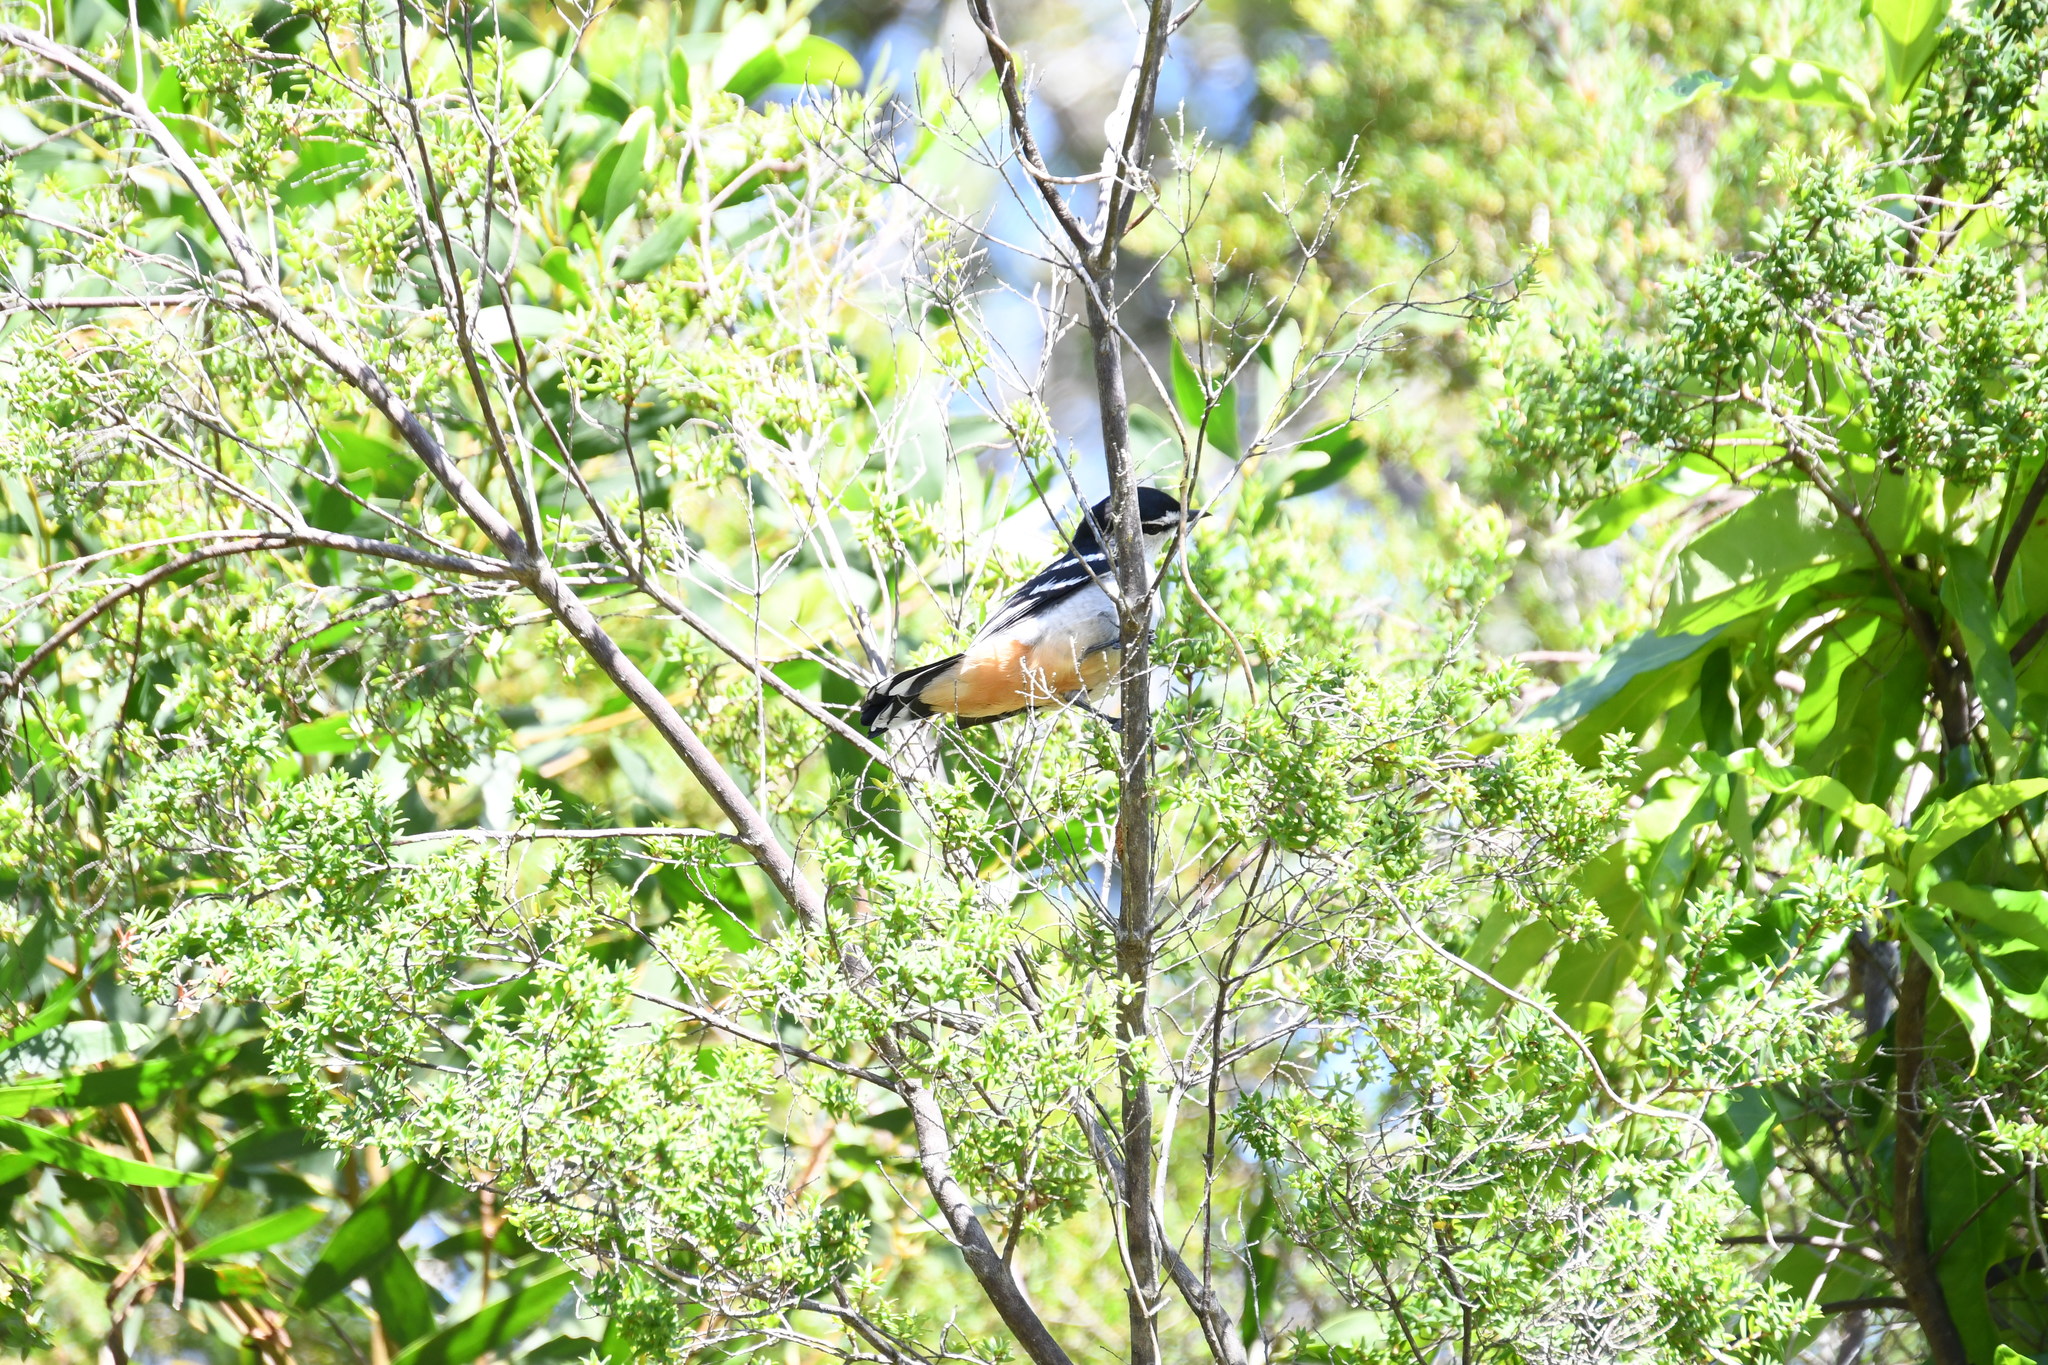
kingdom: Animalia
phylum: Chordata
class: Aves
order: Passeriformes
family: Campephagidae
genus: Lalage
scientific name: Lalage leucomela
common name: Varied triller
